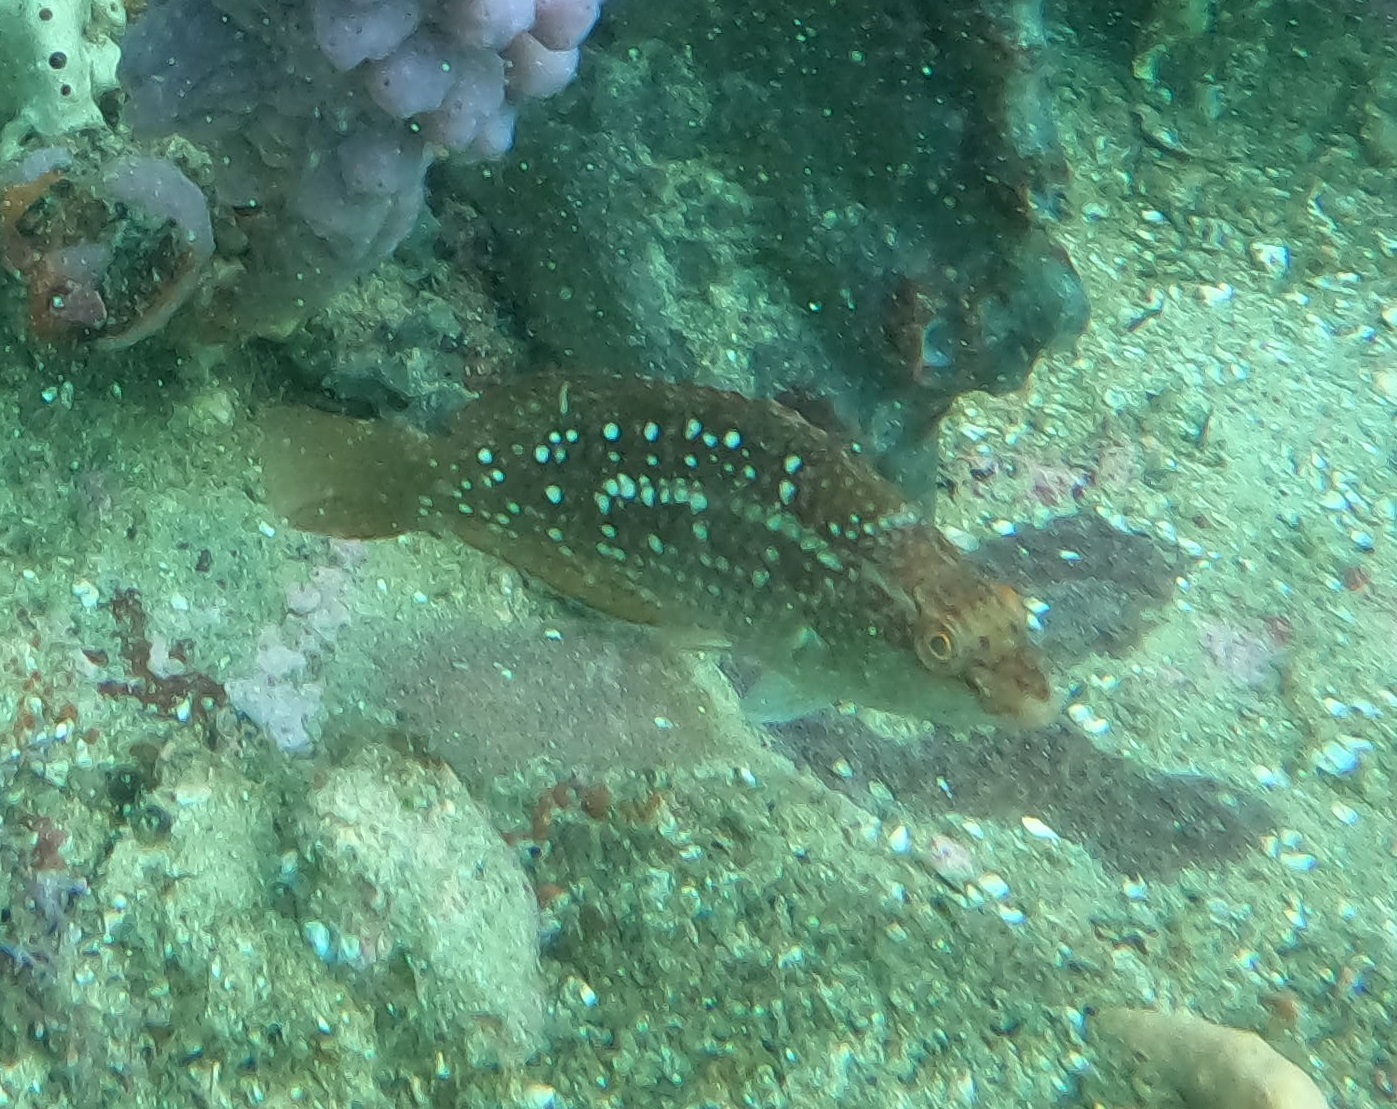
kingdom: Animalia
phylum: Chordata
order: Perciformes
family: Labridae
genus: Notolabrus
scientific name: Notolabrus gymnogenis
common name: Crimson banded wrasse
